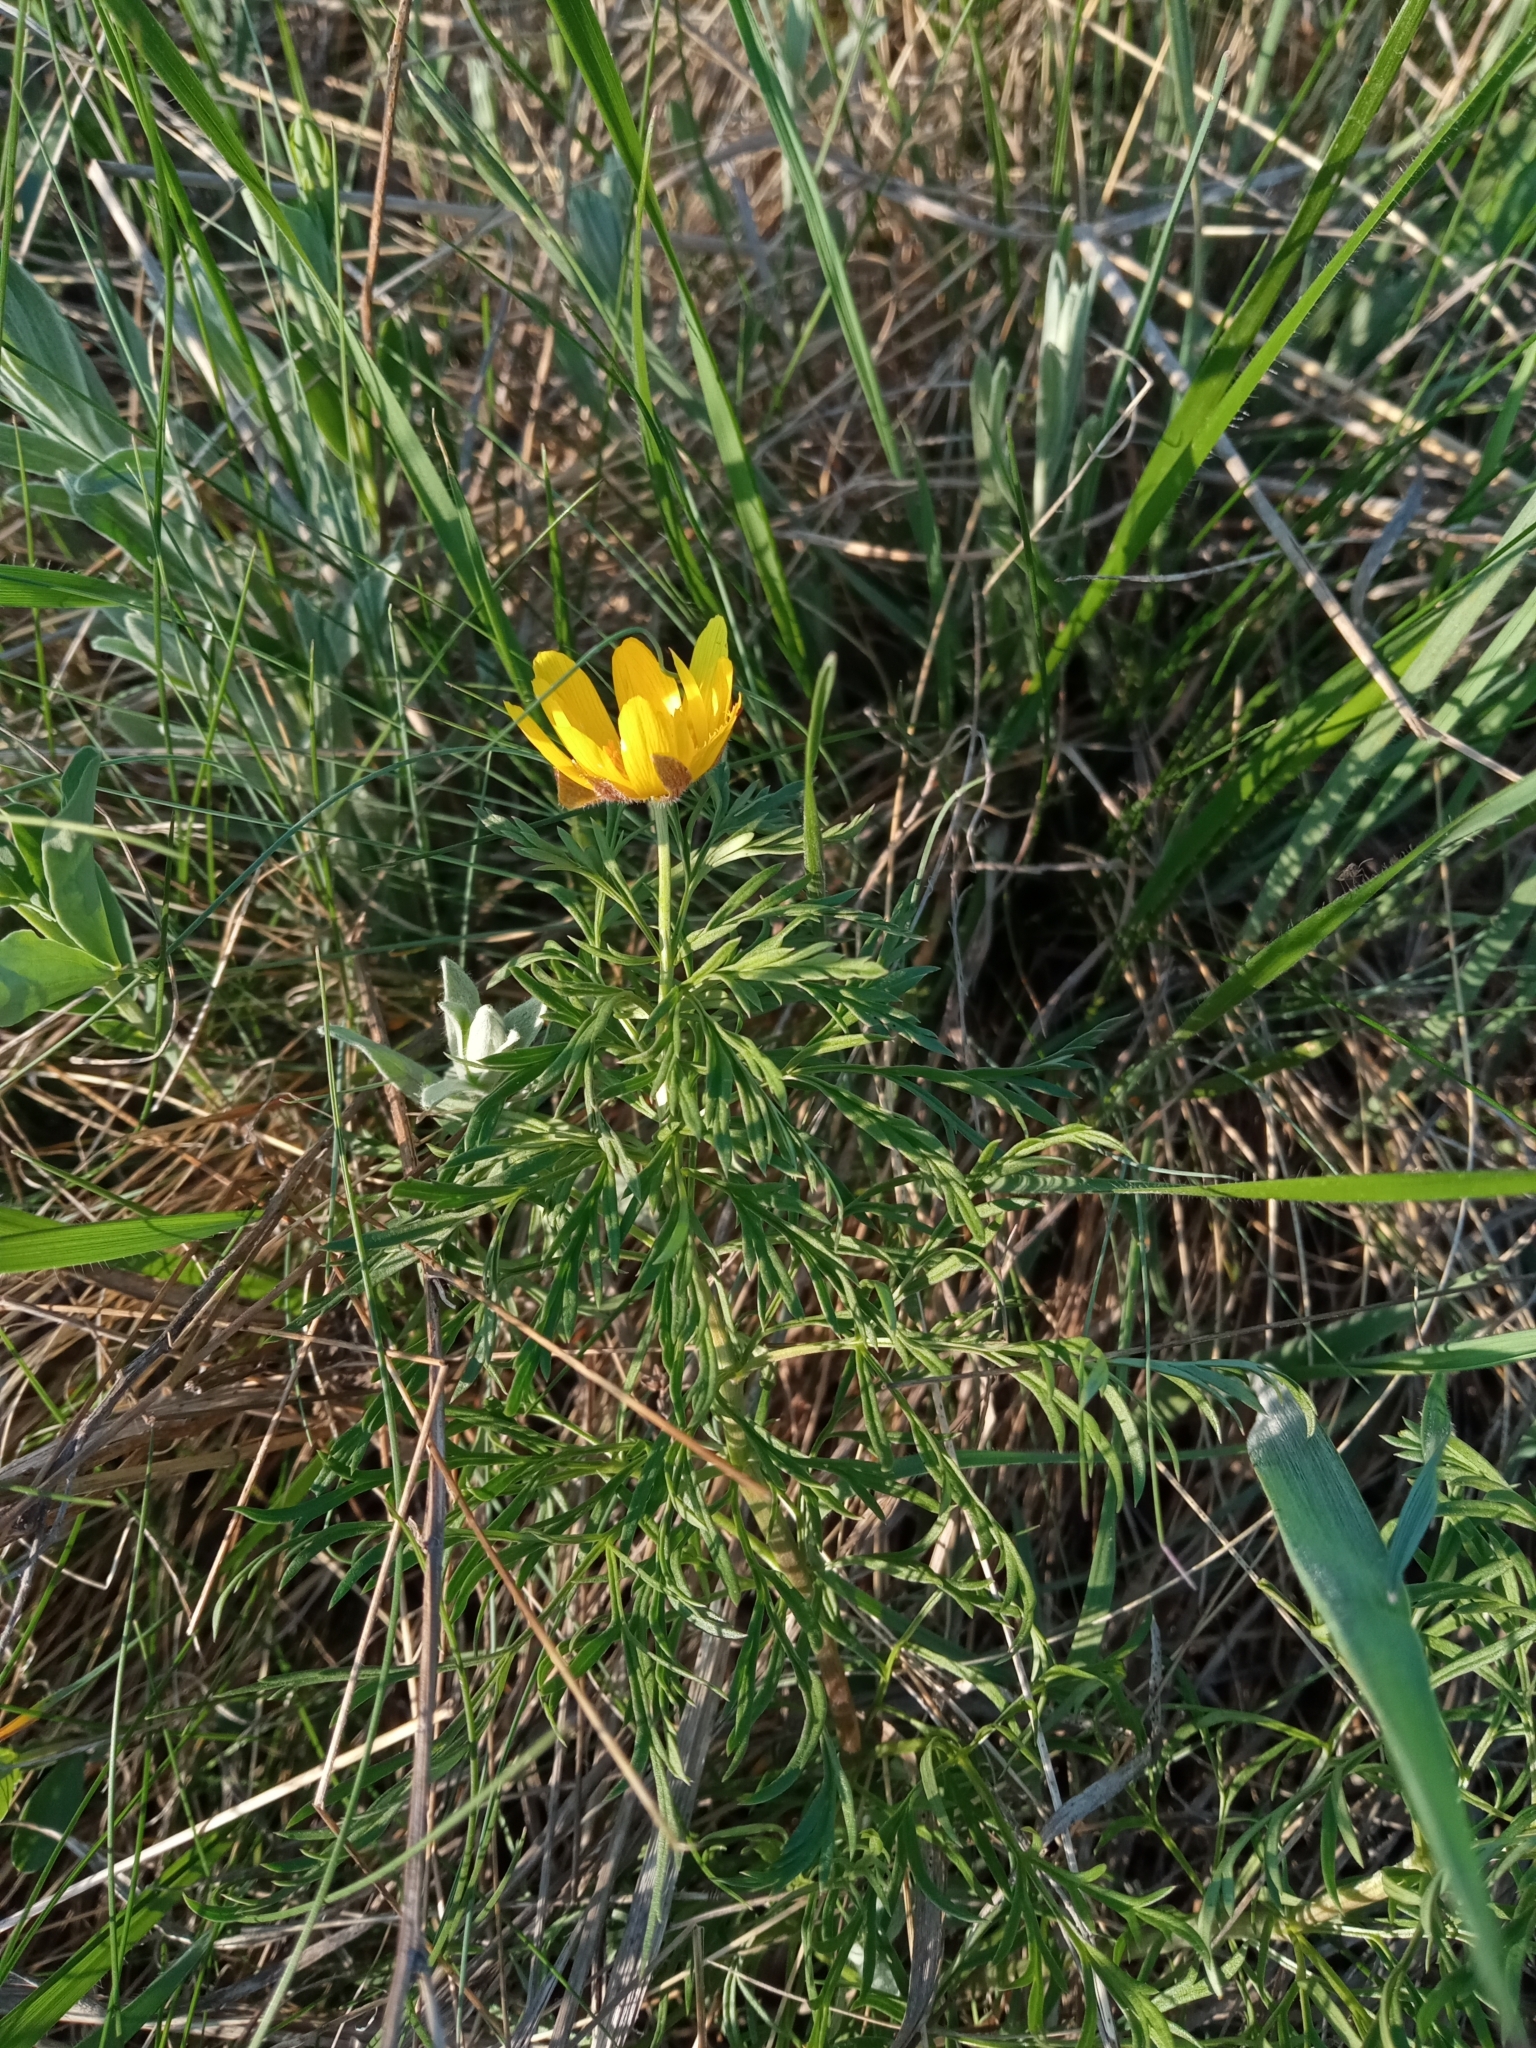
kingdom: Plantae
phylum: Tracheophyta
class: Magnoliopsida
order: Ranunculales
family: Ranunculaceae
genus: Adonis
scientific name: Adonis volgensis
